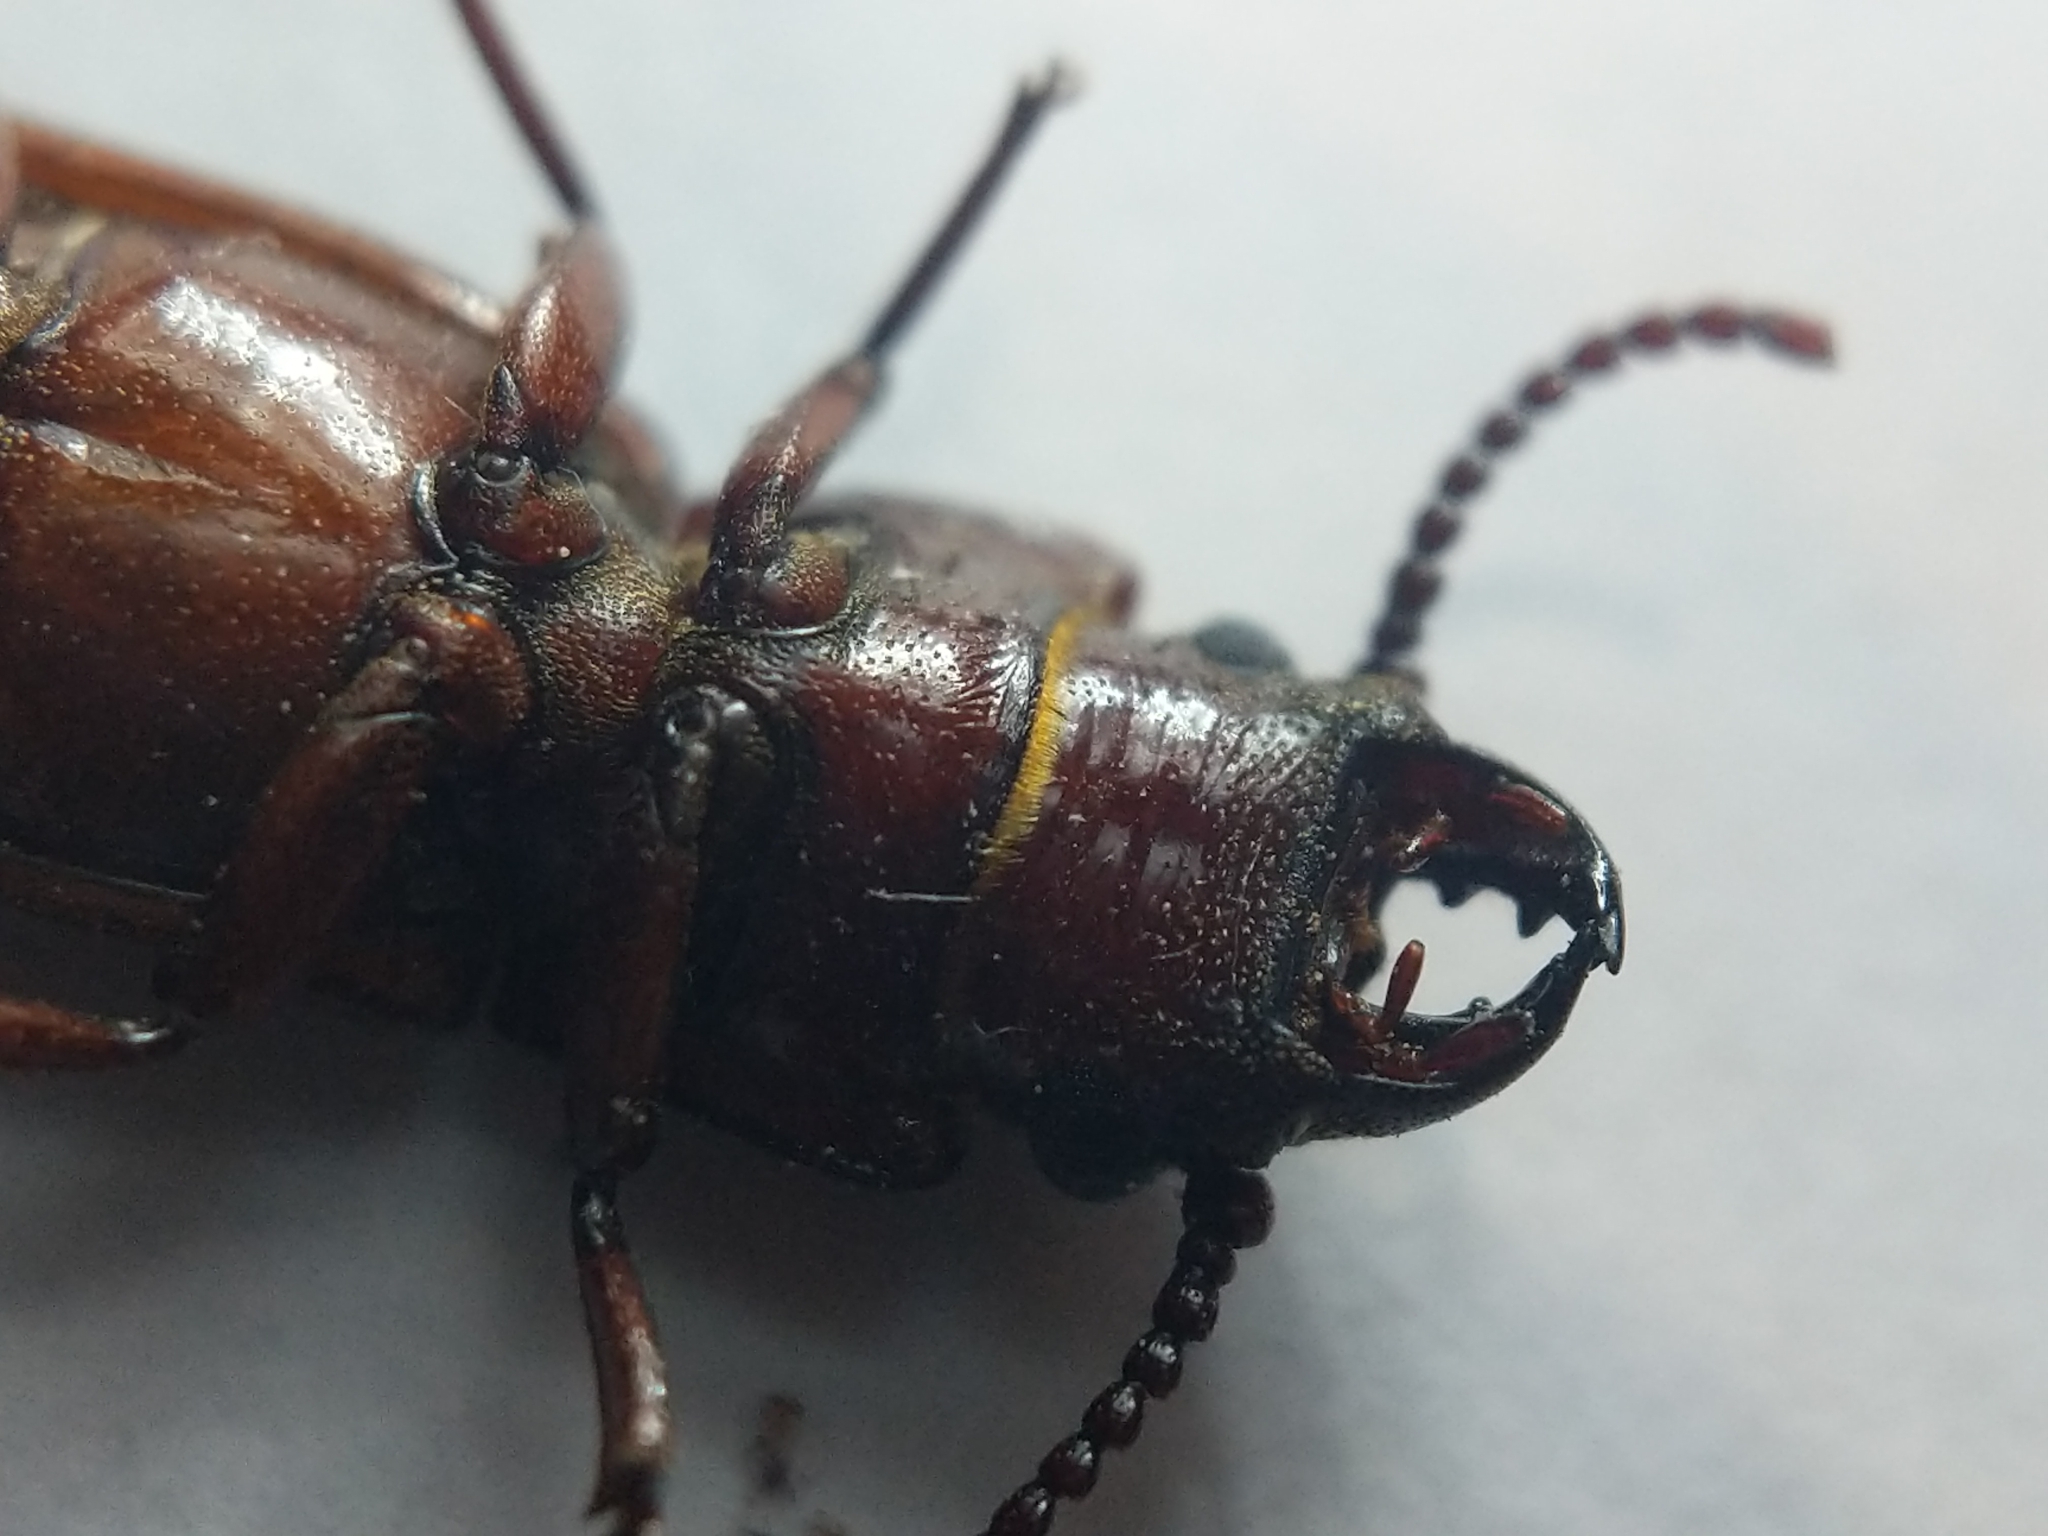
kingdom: Animalia
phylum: Arthropoda
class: Insecta
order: Coleoptera
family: Cerambycidae
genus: Neandra
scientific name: Neandra brunnea
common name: Pole borer
